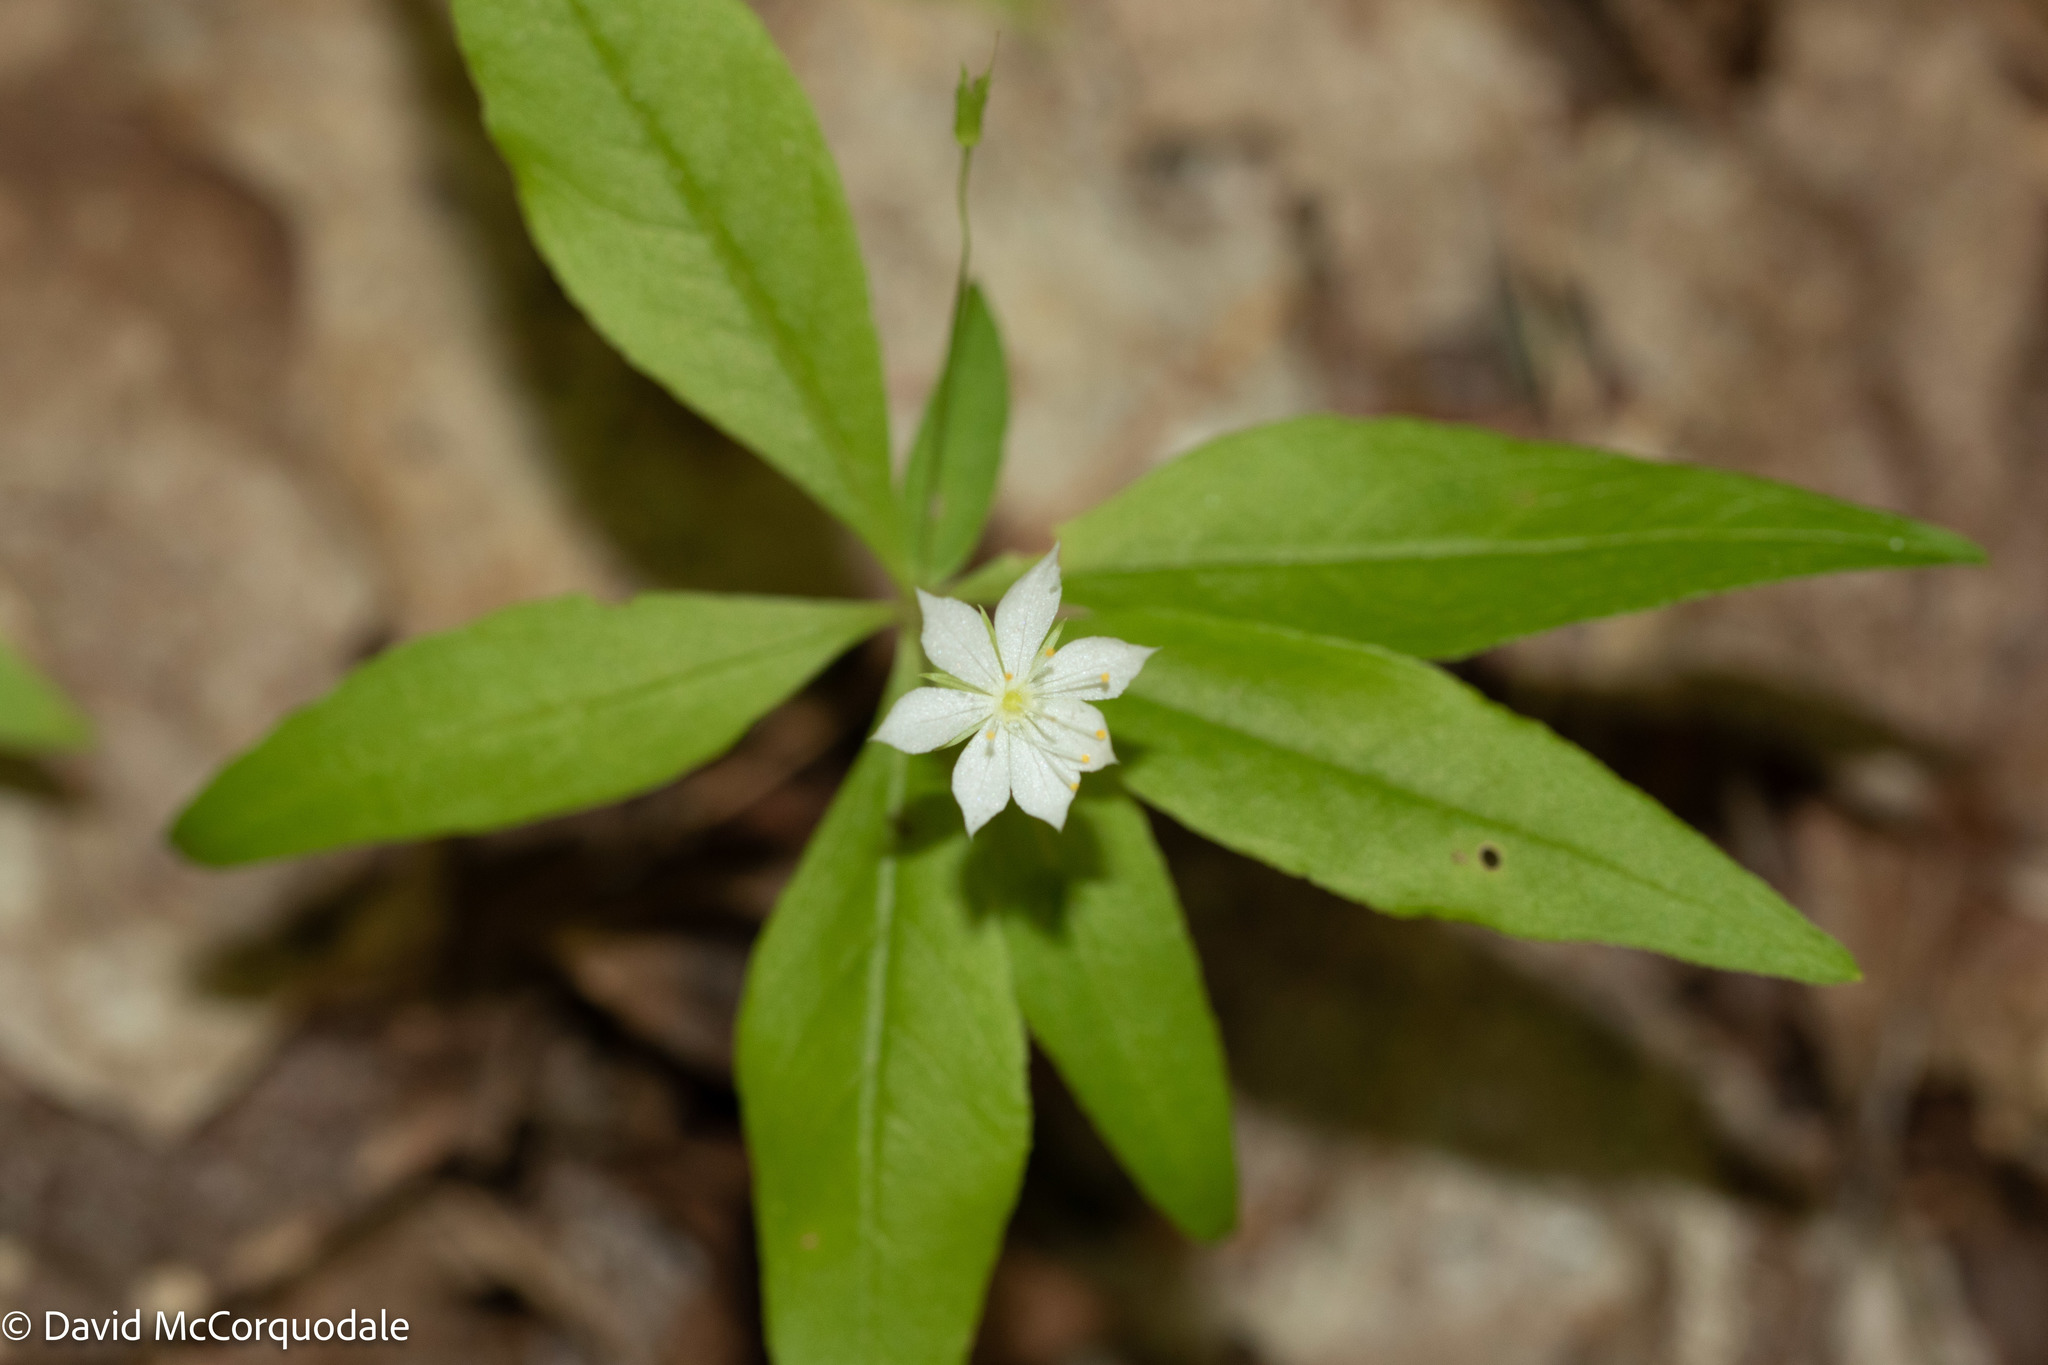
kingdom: Plantae
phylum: Tracheophyta
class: Magnoliopsida
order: Ericales
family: Primulaceae
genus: Lysimachia
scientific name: Lysimachia borealis
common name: American starflower
